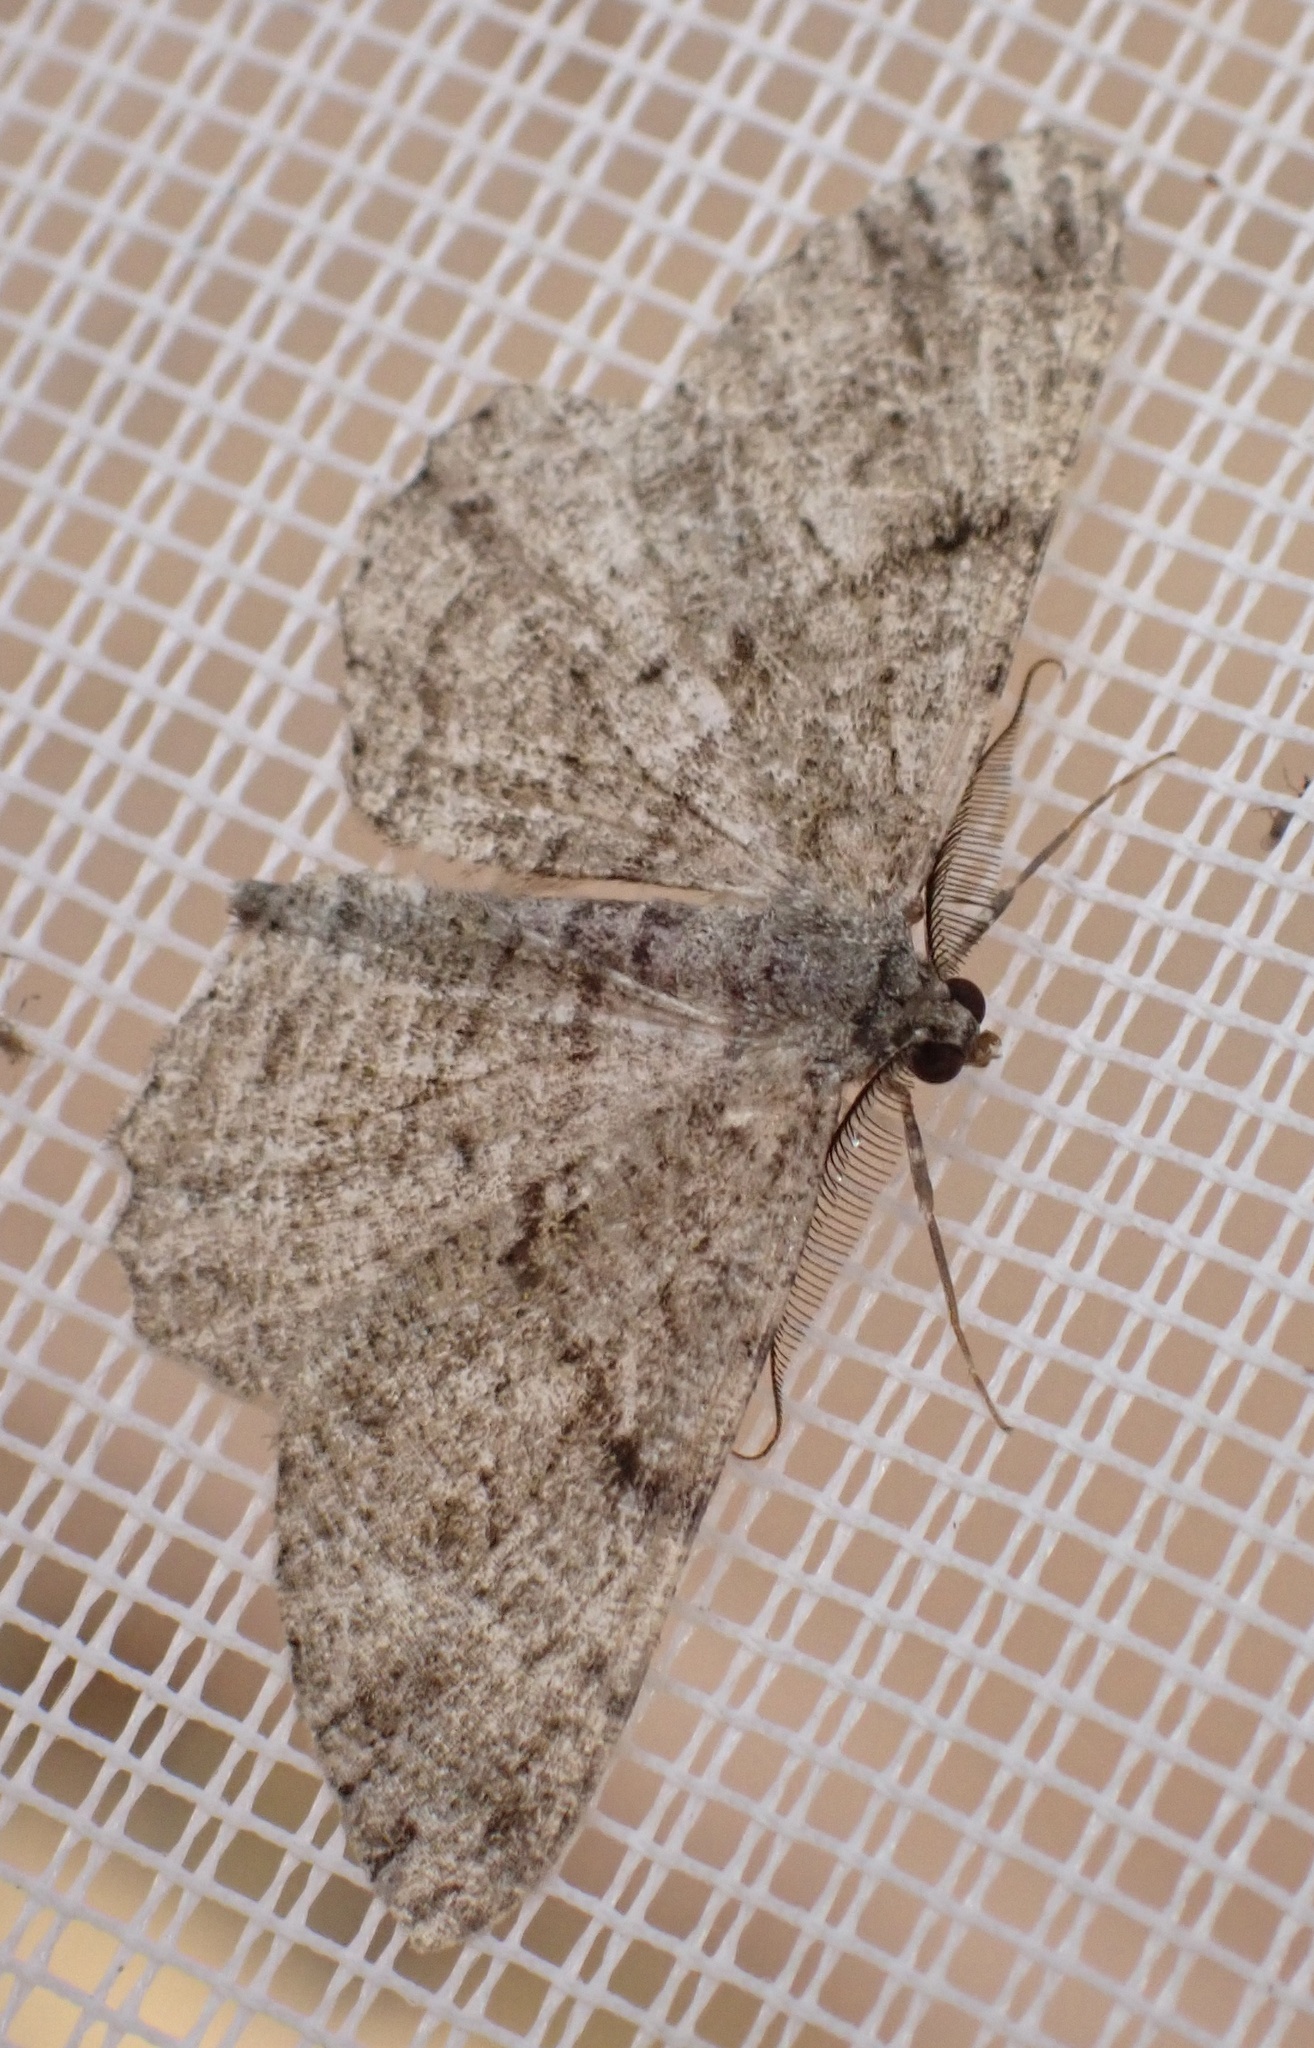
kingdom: Animalia
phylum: Arthropoda
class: Insecta
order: Lepidoptera
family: Geometridae
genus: Peribatodes
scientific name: Peribatodes rhomboidaria
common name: Willow beauty
